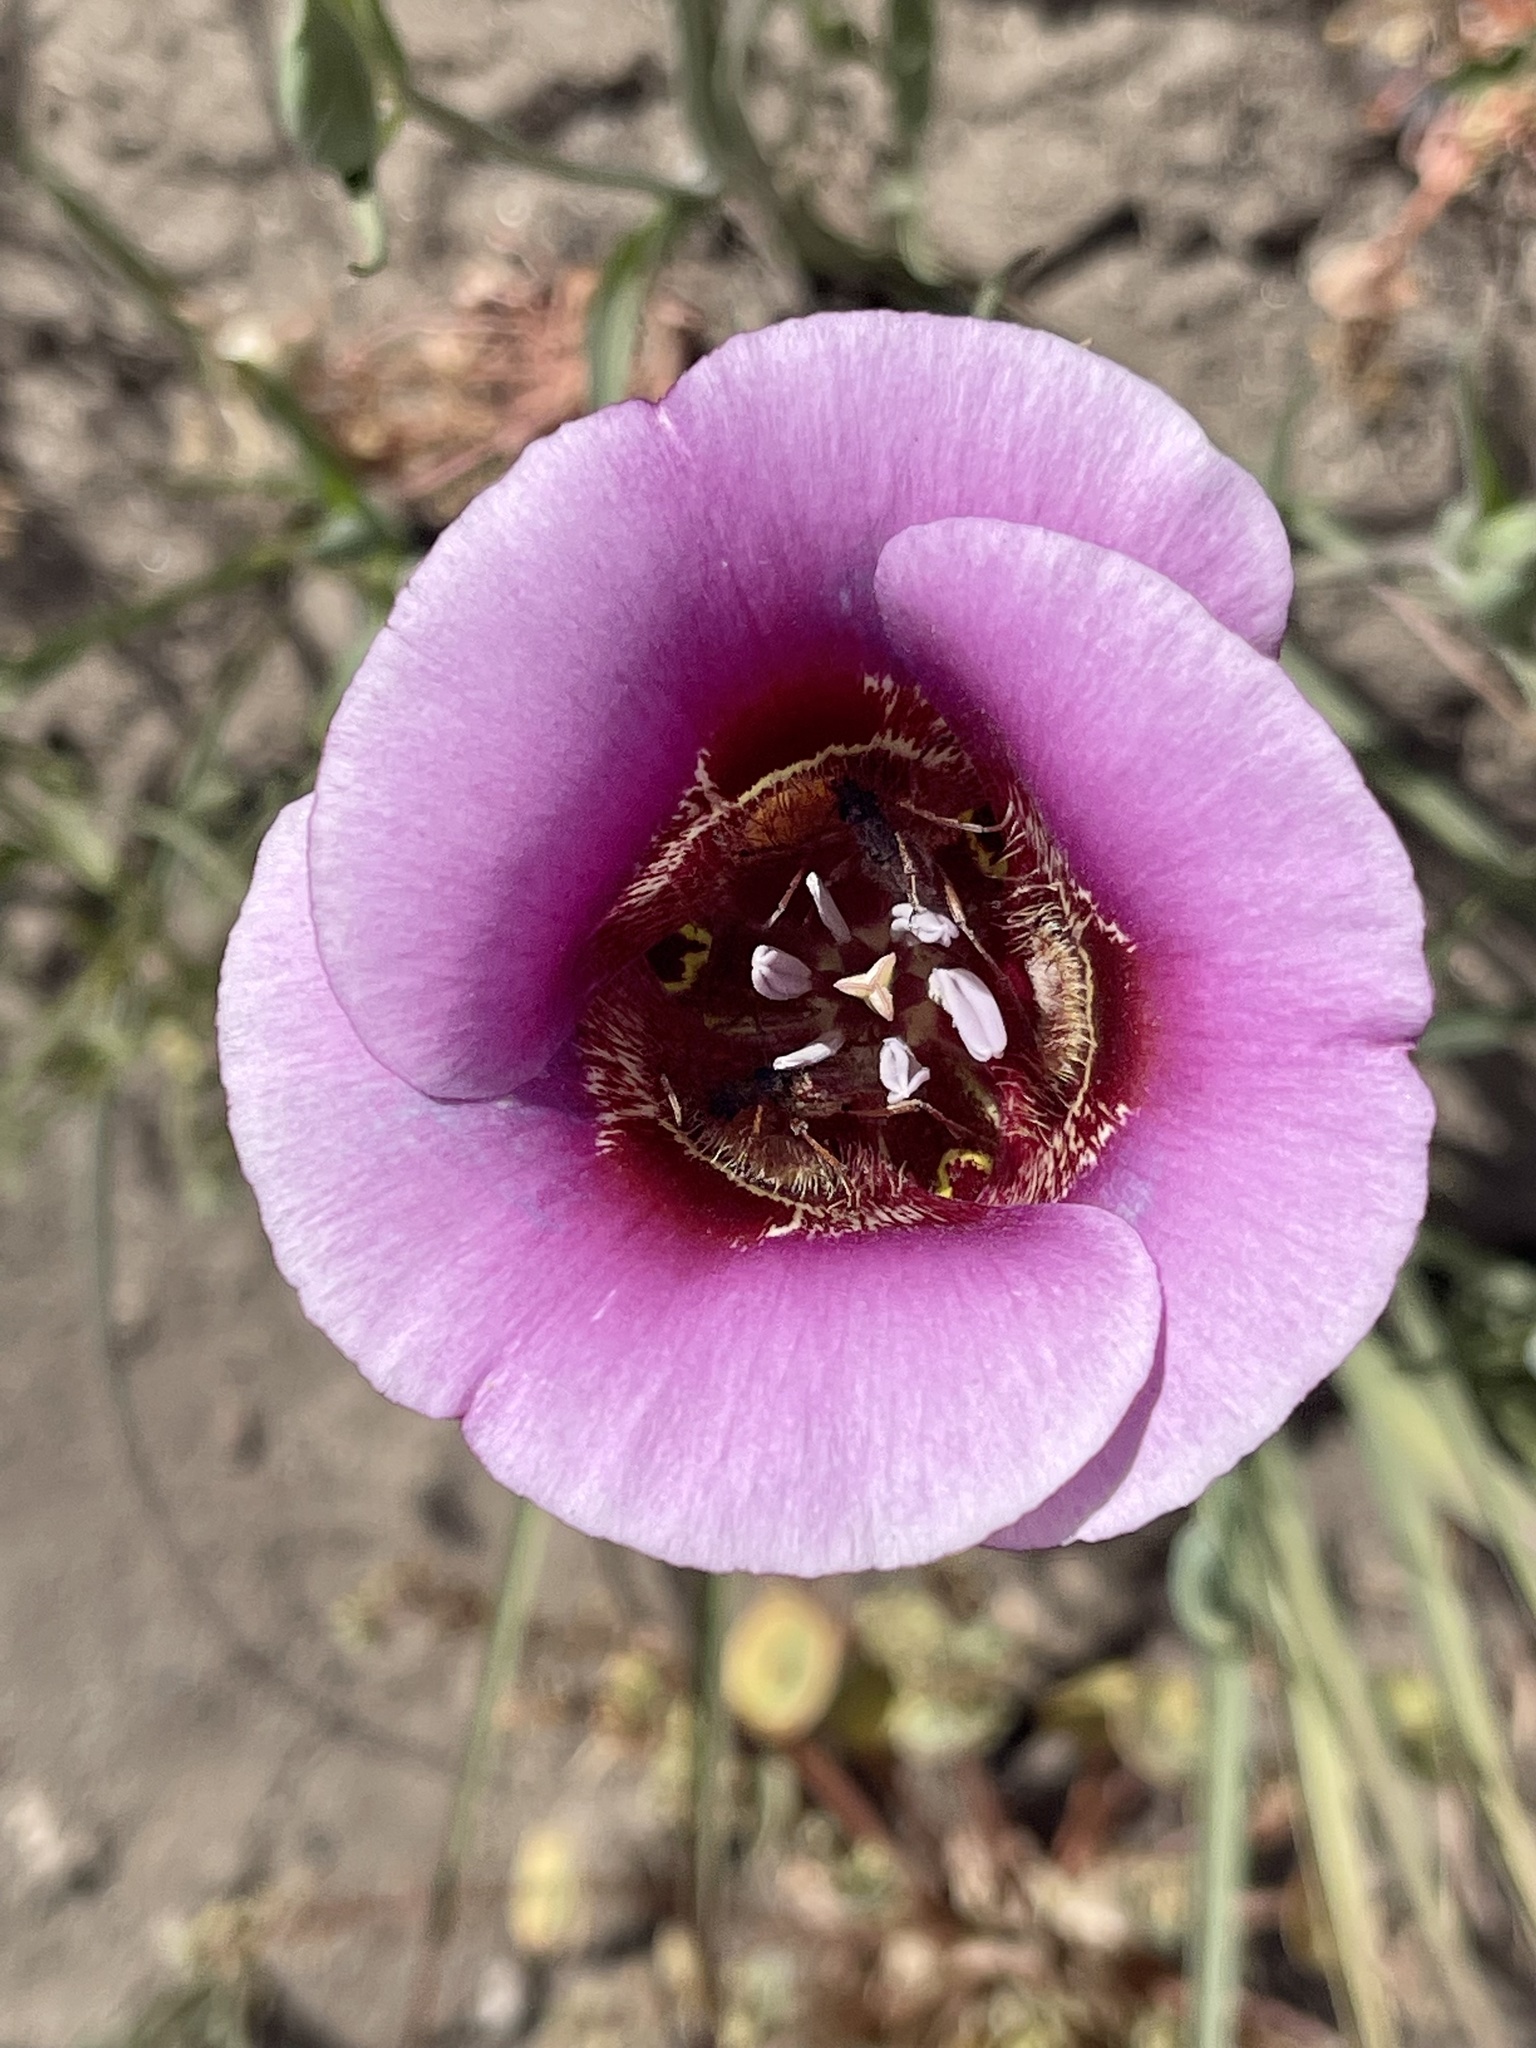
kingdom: Plantae
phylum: Tracheophyta
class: Liliopsida
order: Liliales
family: Liliaceae
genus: Calochortus
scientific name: Calochortus venustus
